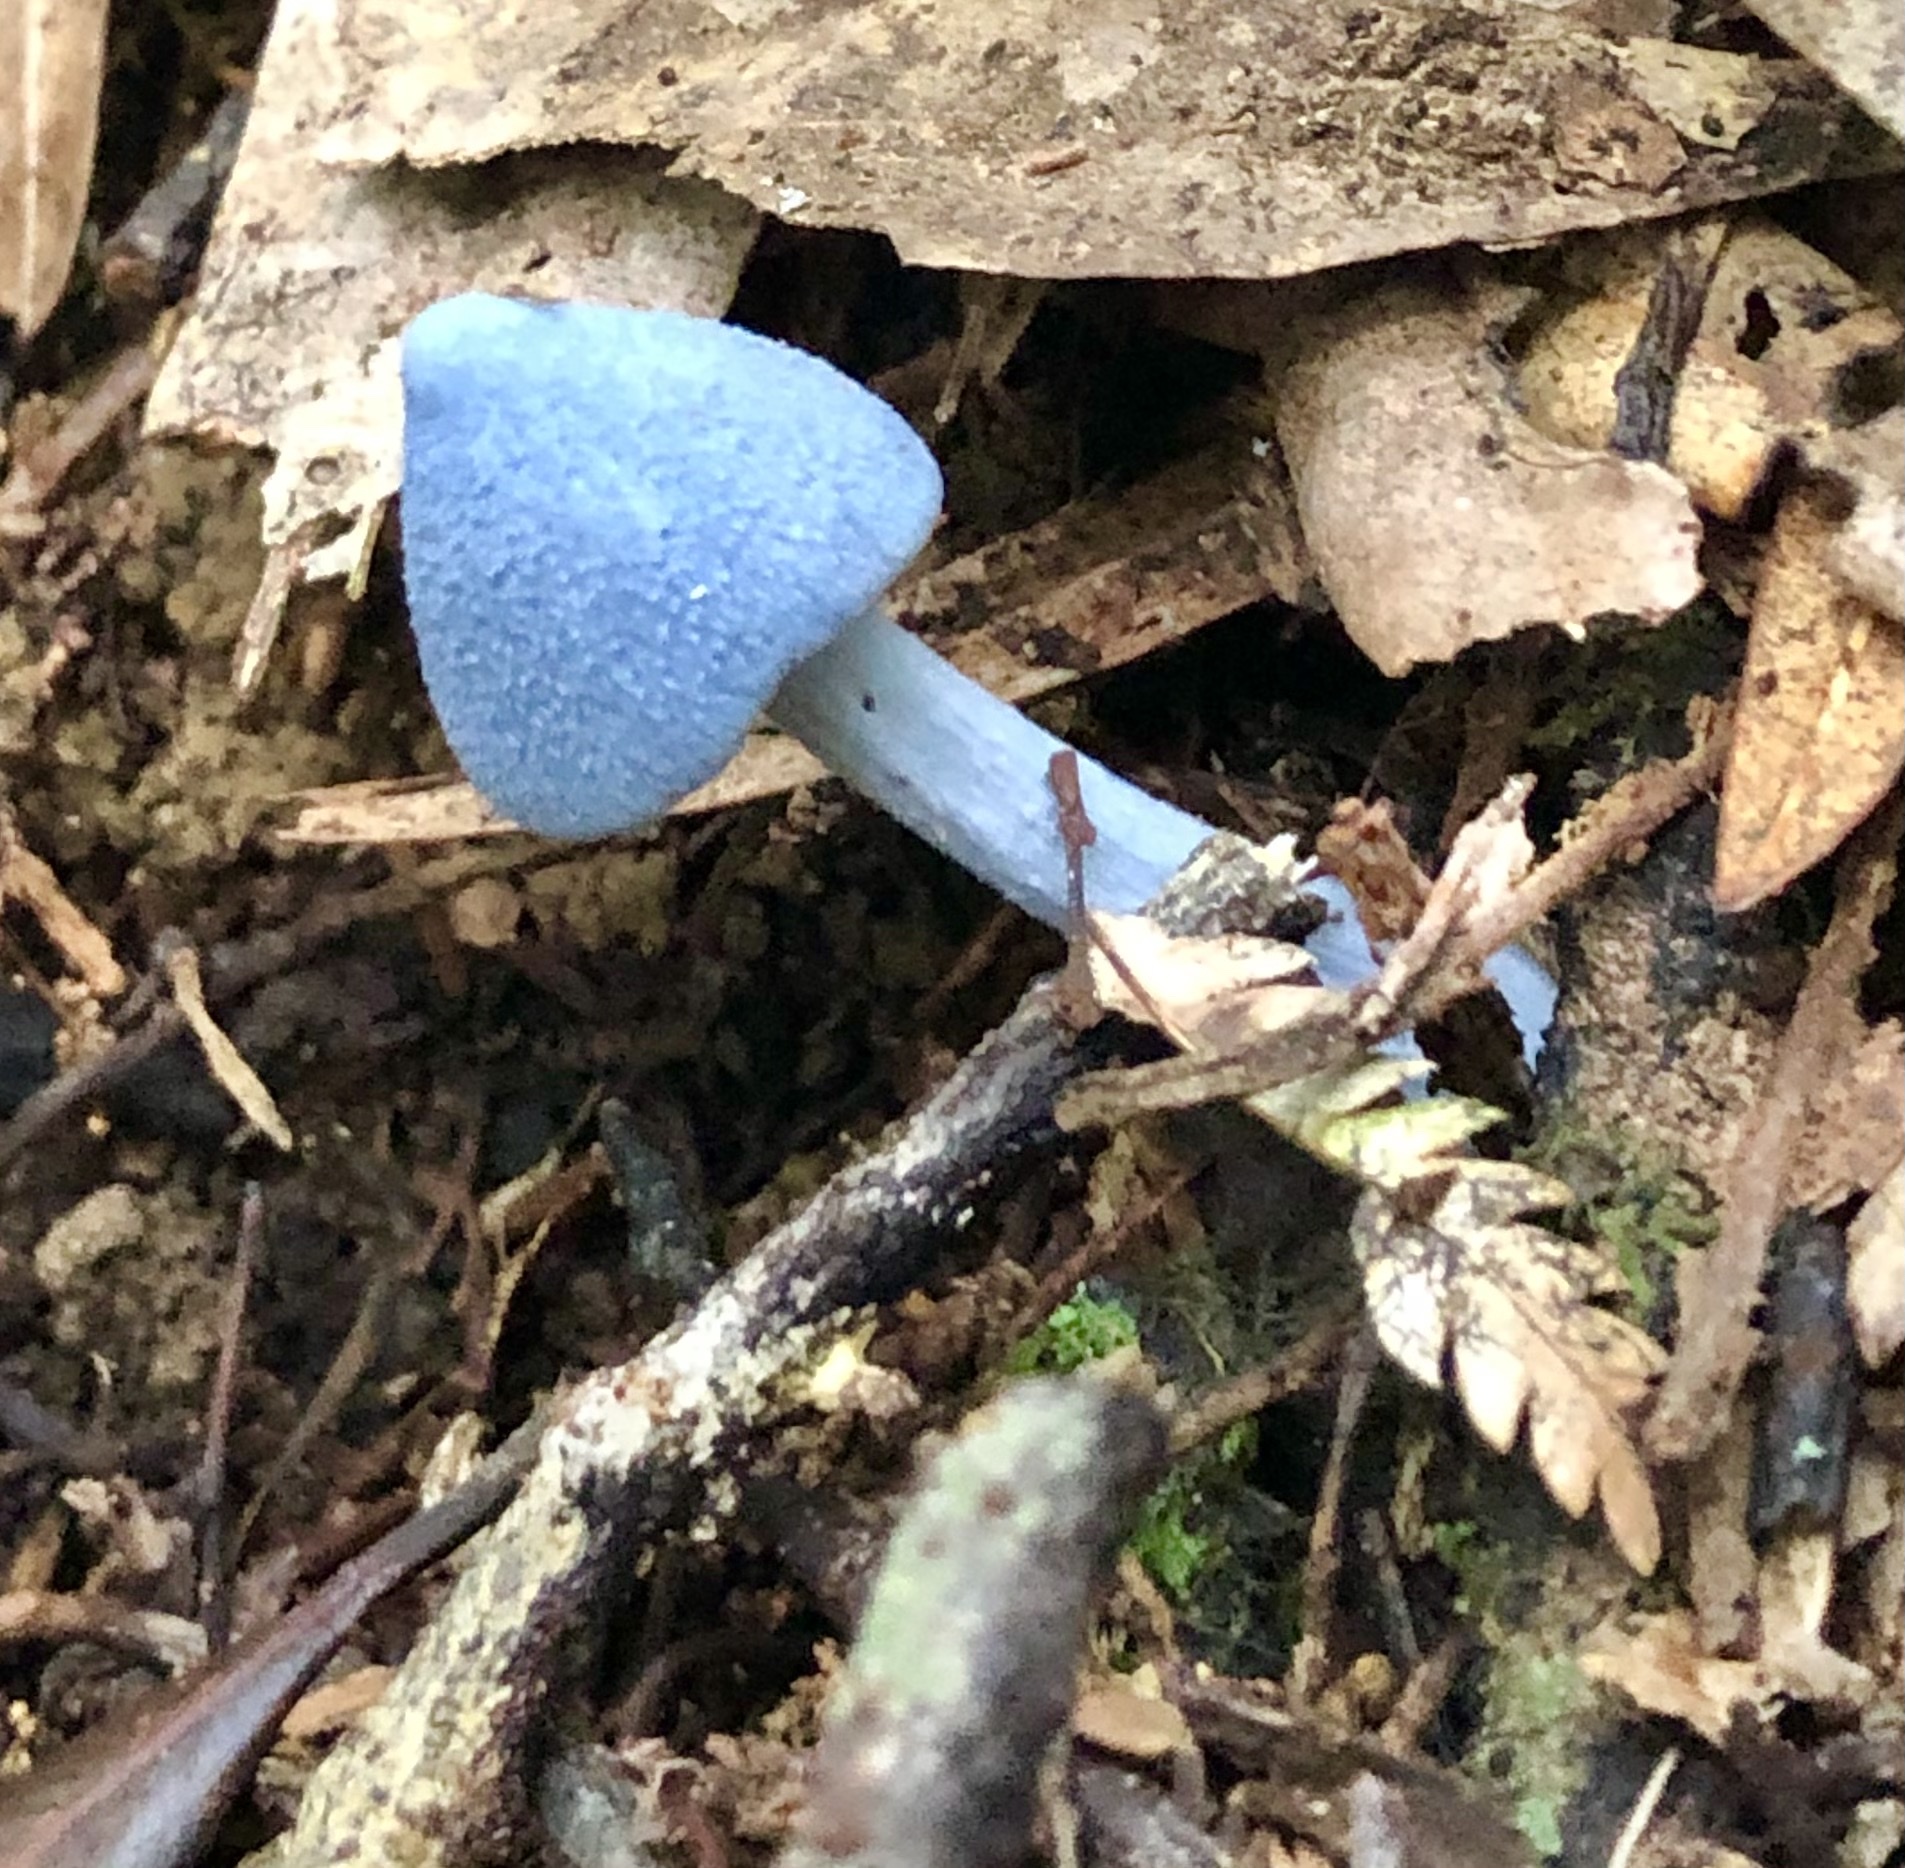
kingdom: Fungi
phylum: Basidiomycota
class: Agaricomycetes
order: Agaricales
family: Entolomataceae
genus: Entoloma
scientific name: Entoloma hochstetteri
